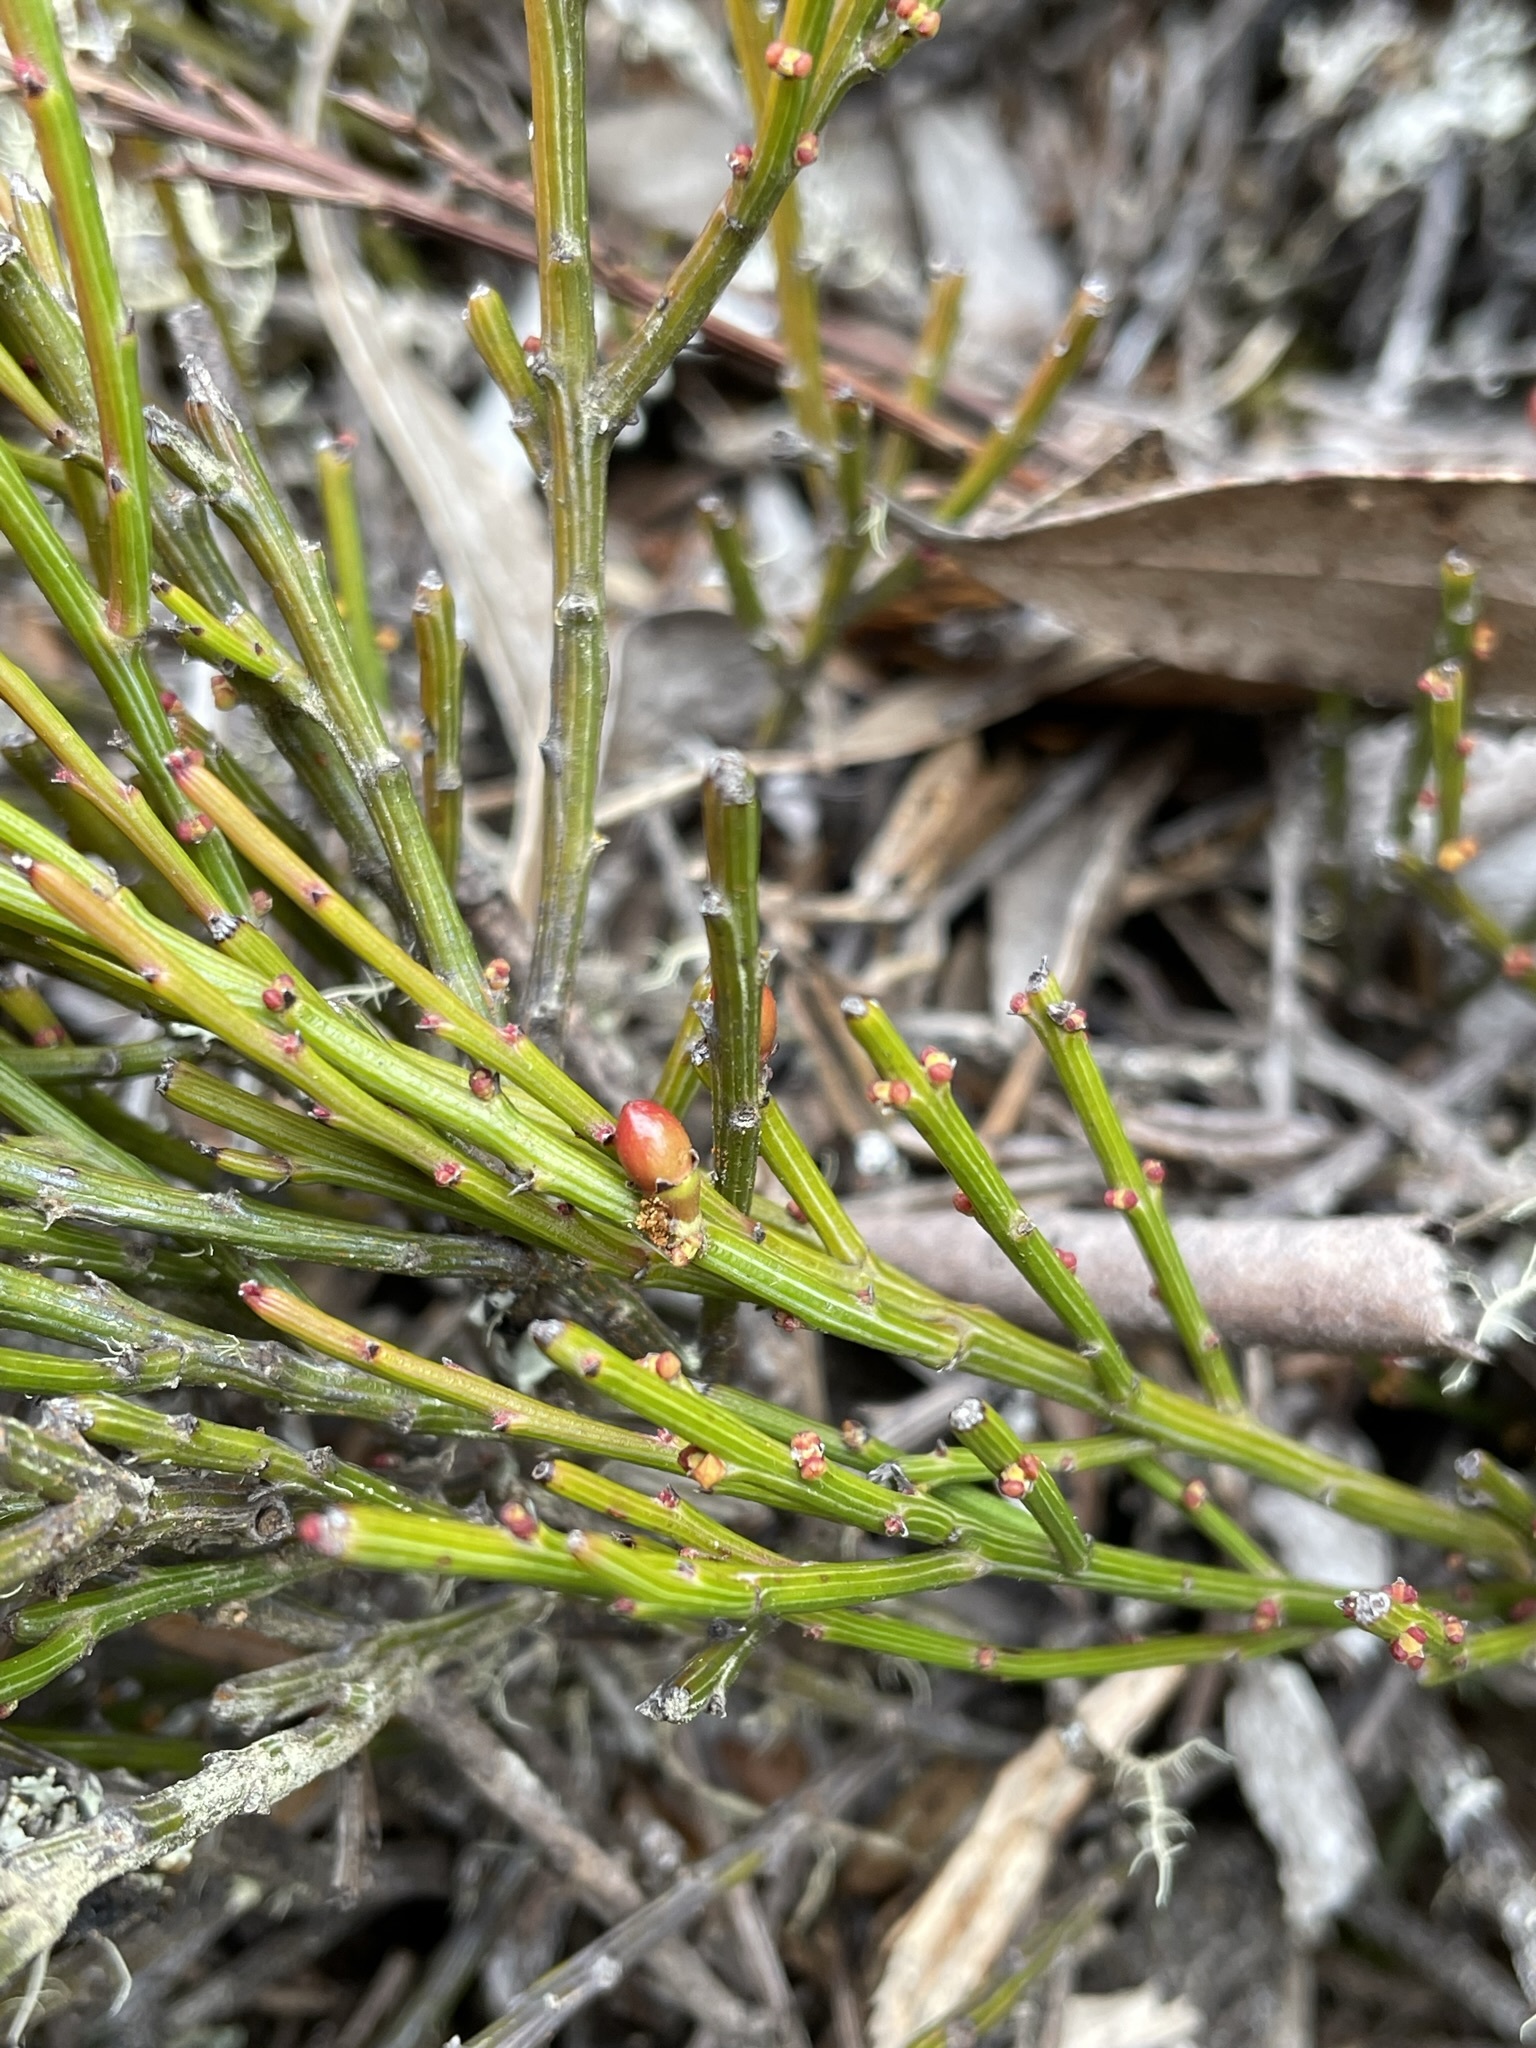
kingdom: Plantae
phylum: Tracheophyta
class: Magnoliopsida
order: Santalales
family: Santalaceae
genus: Exocarpos
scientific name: Exocarpos humifusus
